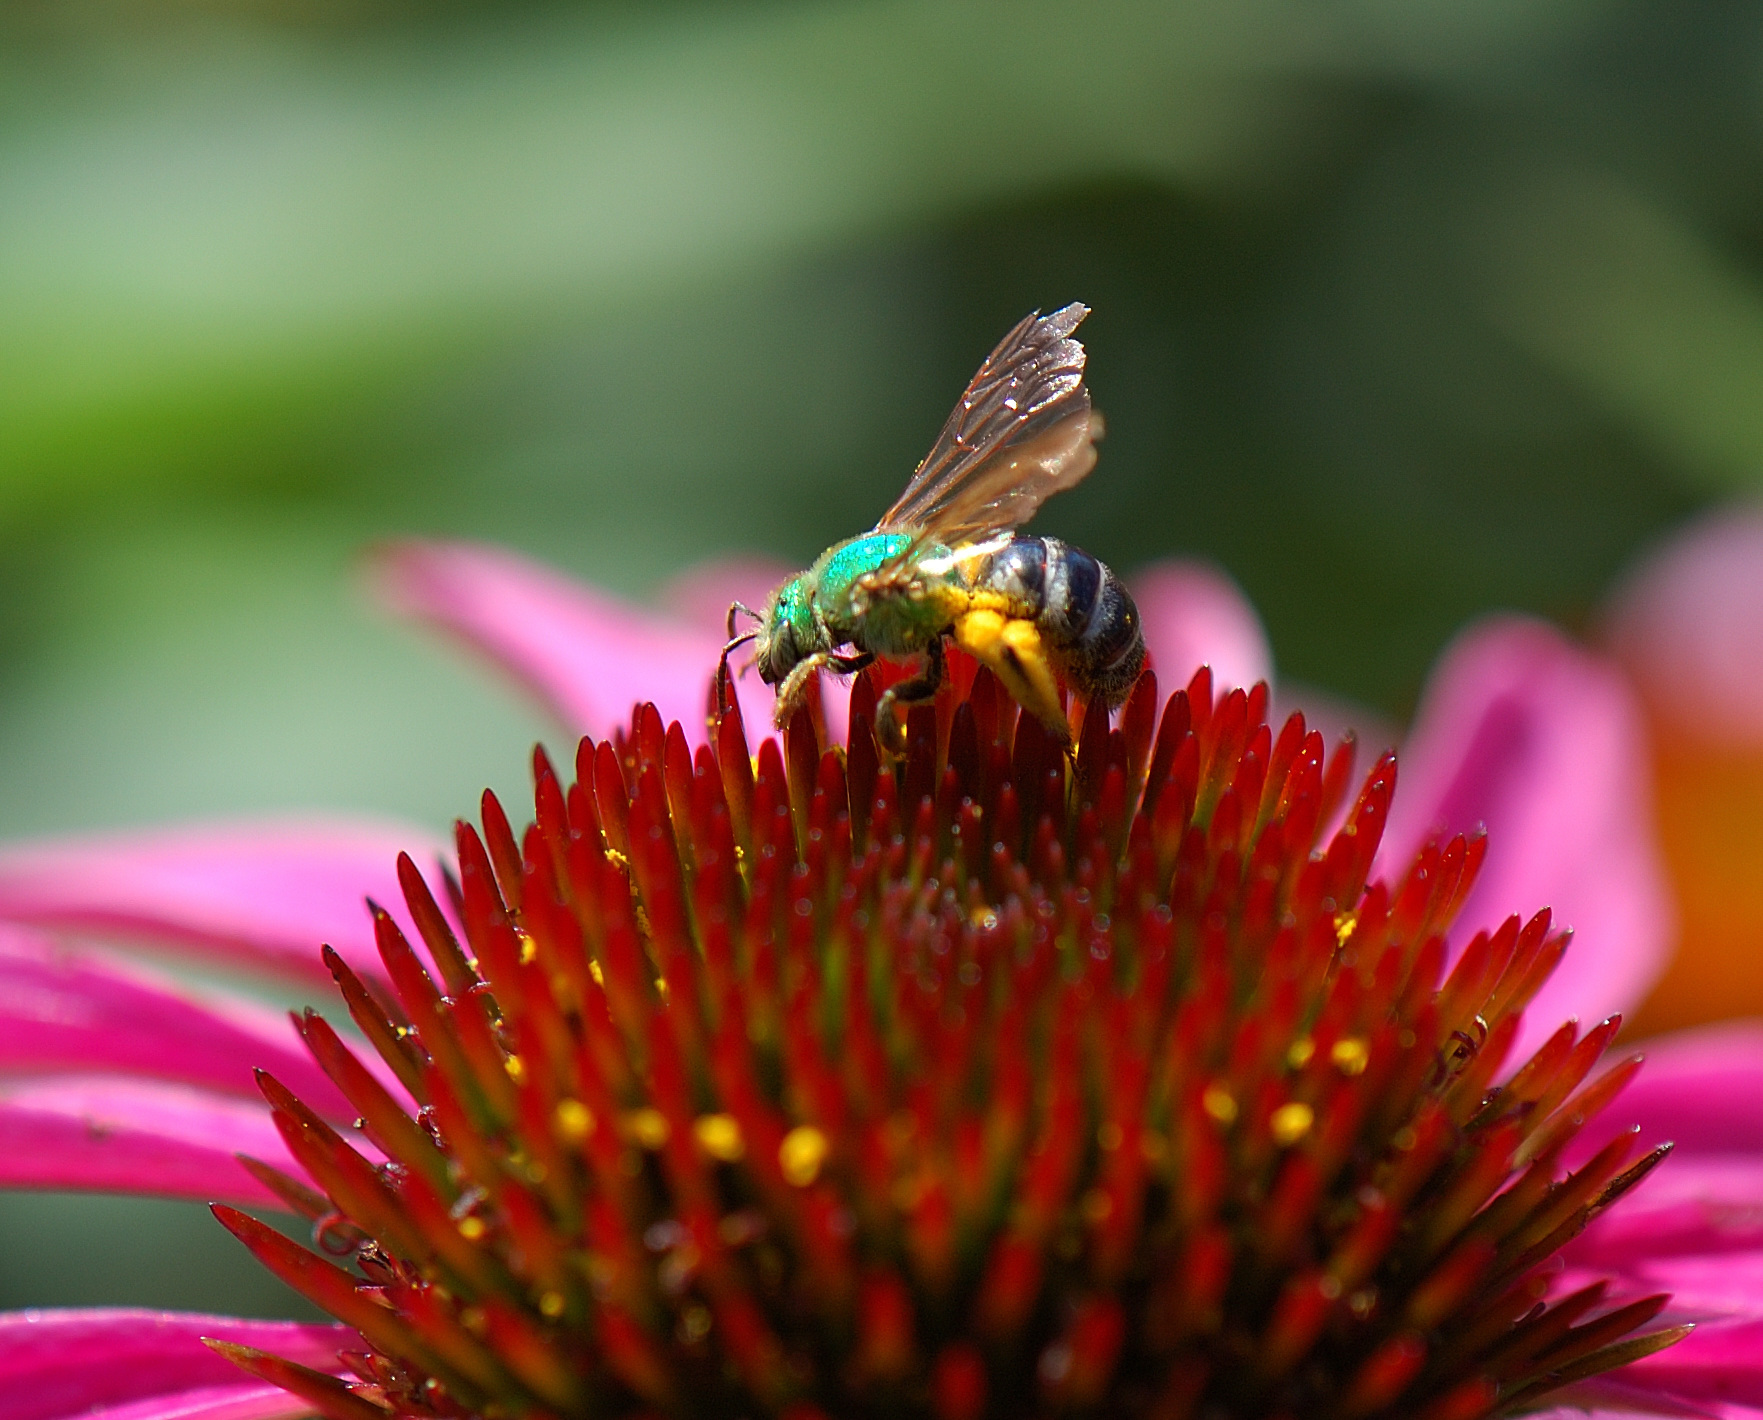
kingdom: Animalia
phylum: Arthropoda
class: Insecta
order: Hymenoptera
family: Halictidae
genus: Agapostemon
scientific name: Agapostemon virescens
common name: Bicolored striped sweat bee
